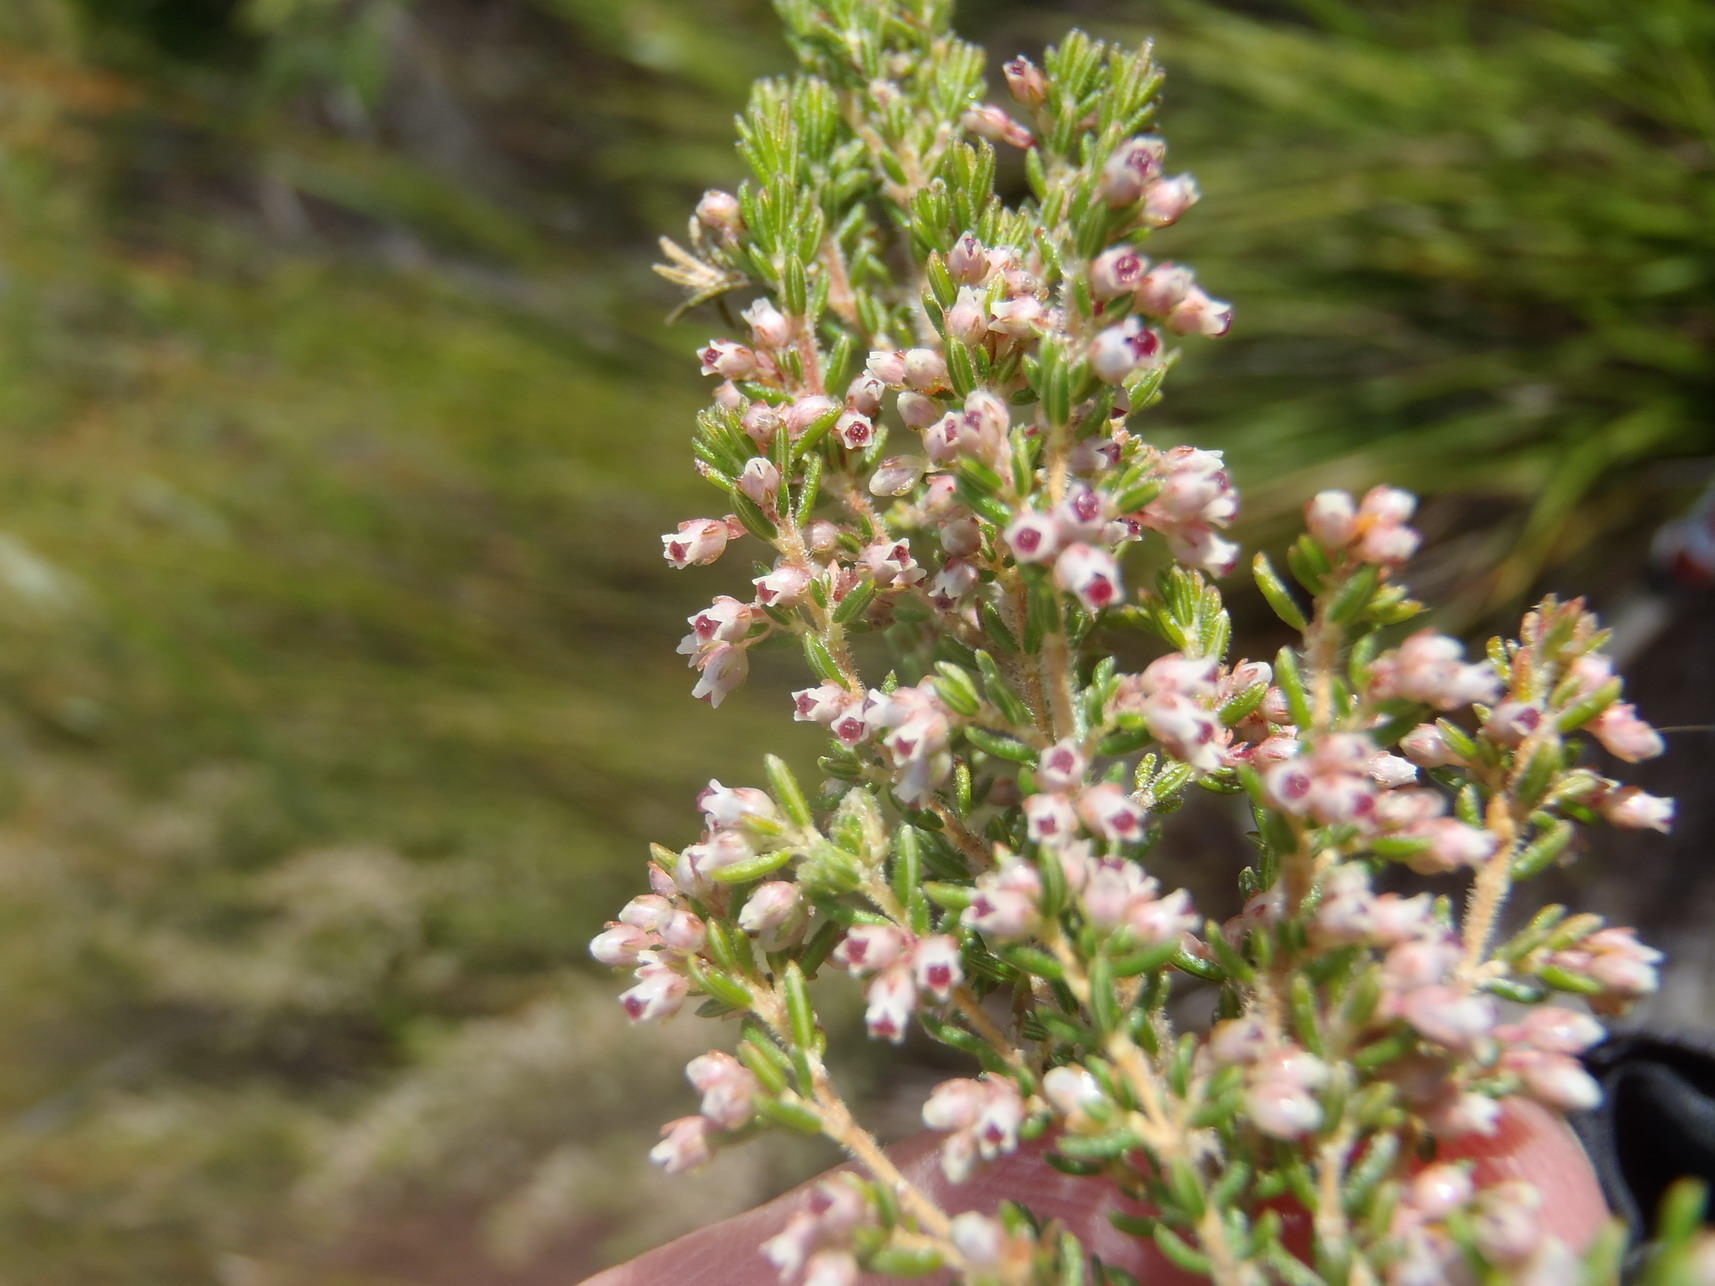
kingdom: Plantae
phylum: Tracheophyta
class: Magnoliopsida
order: Ericales
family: Ericaceae
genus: Erica
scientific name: Erica hispidula
